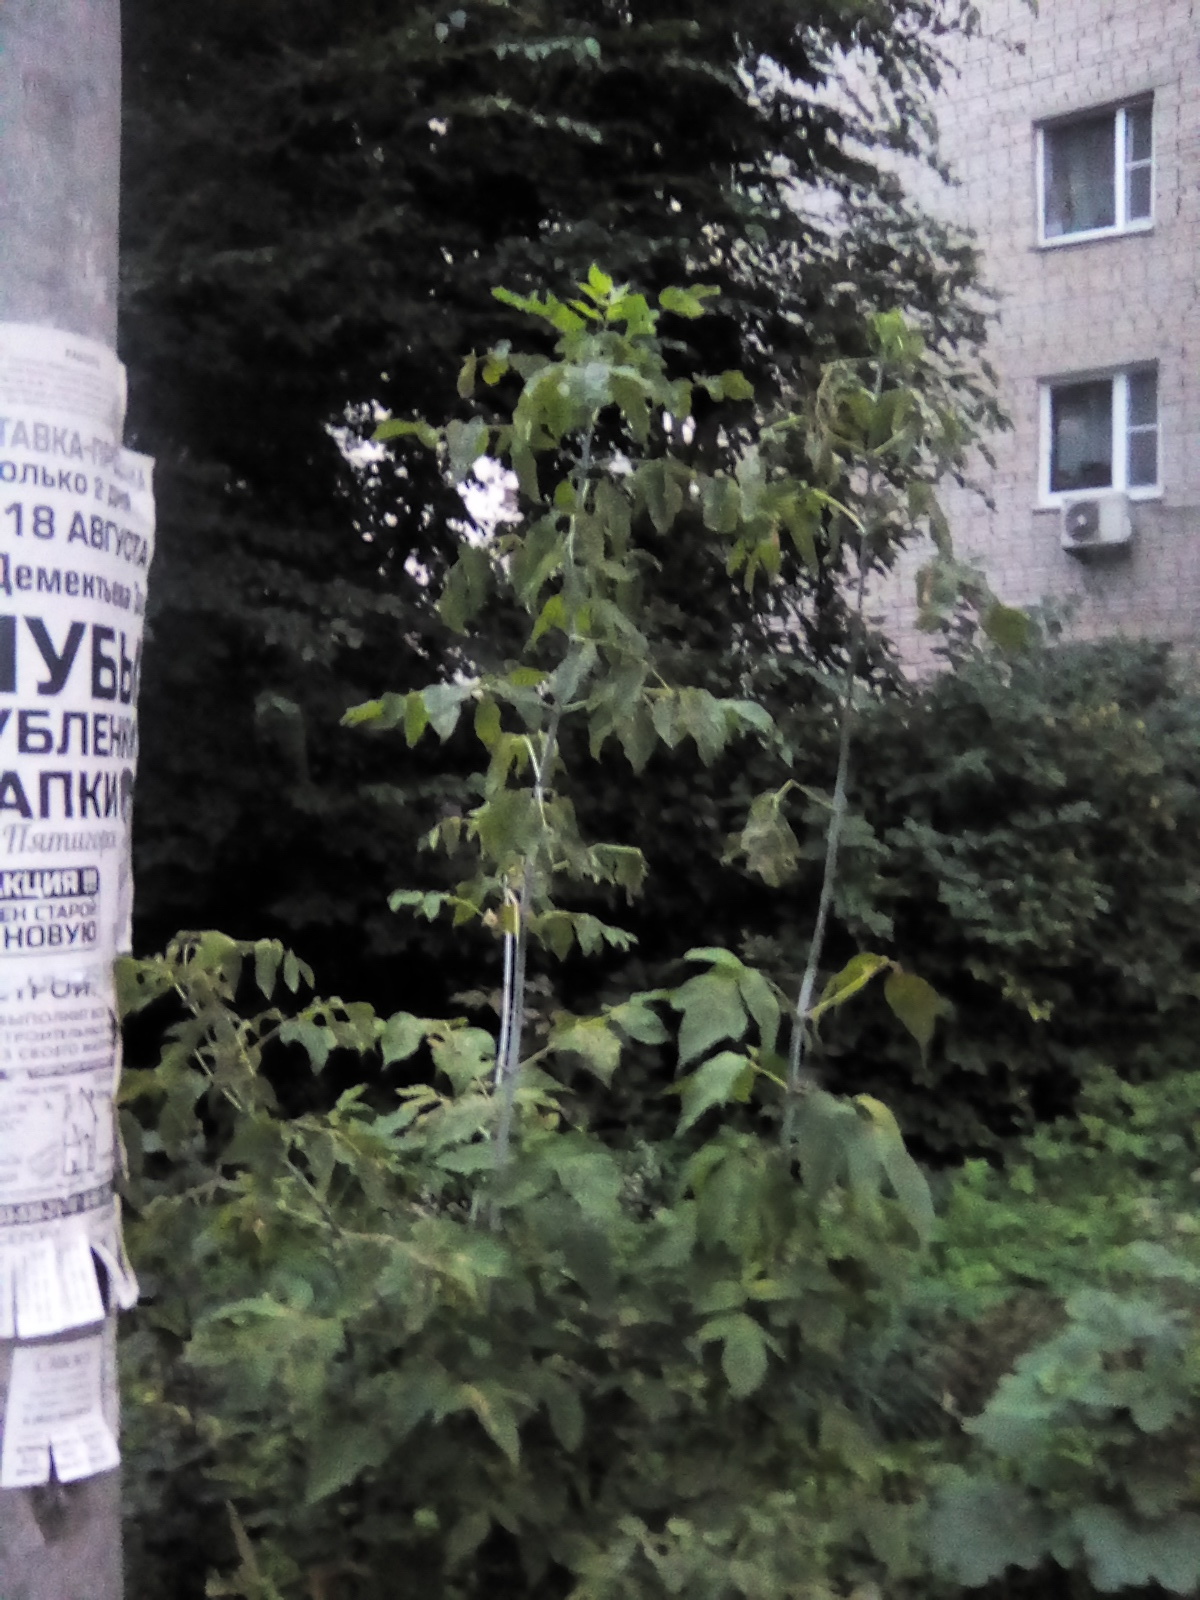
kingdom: Plantae
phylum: Tracheophyta
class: Magnoliopsida
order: Sapindales
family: Sapindaceae
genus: Acer
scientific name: Acer negundo
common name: Ashleaf maple
